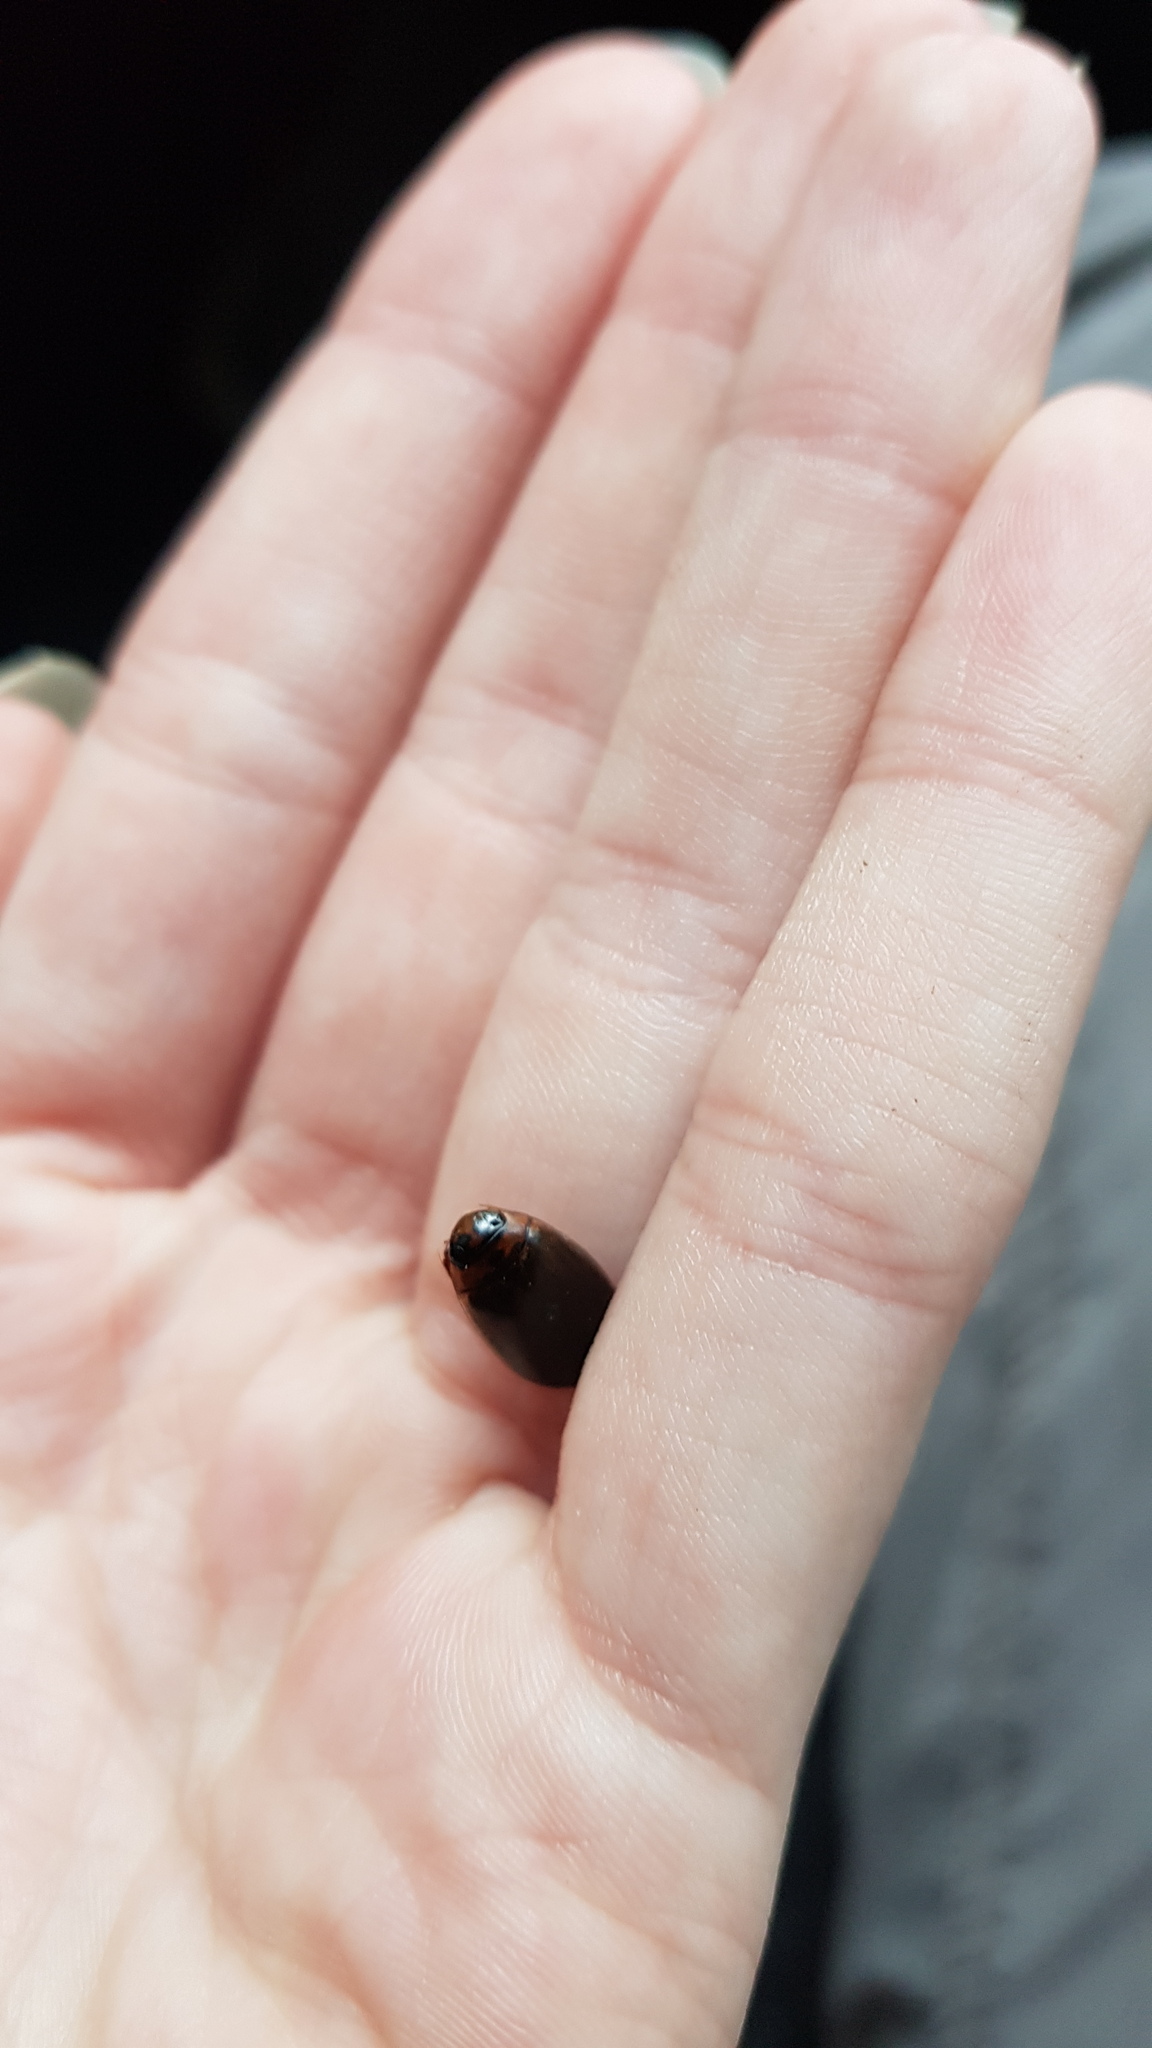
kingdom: Animalia
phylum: Arthropoda
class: Insecta
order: Coleoptera
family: Dytiscidae
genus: Rhantus
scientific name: Rhantus suturalis
